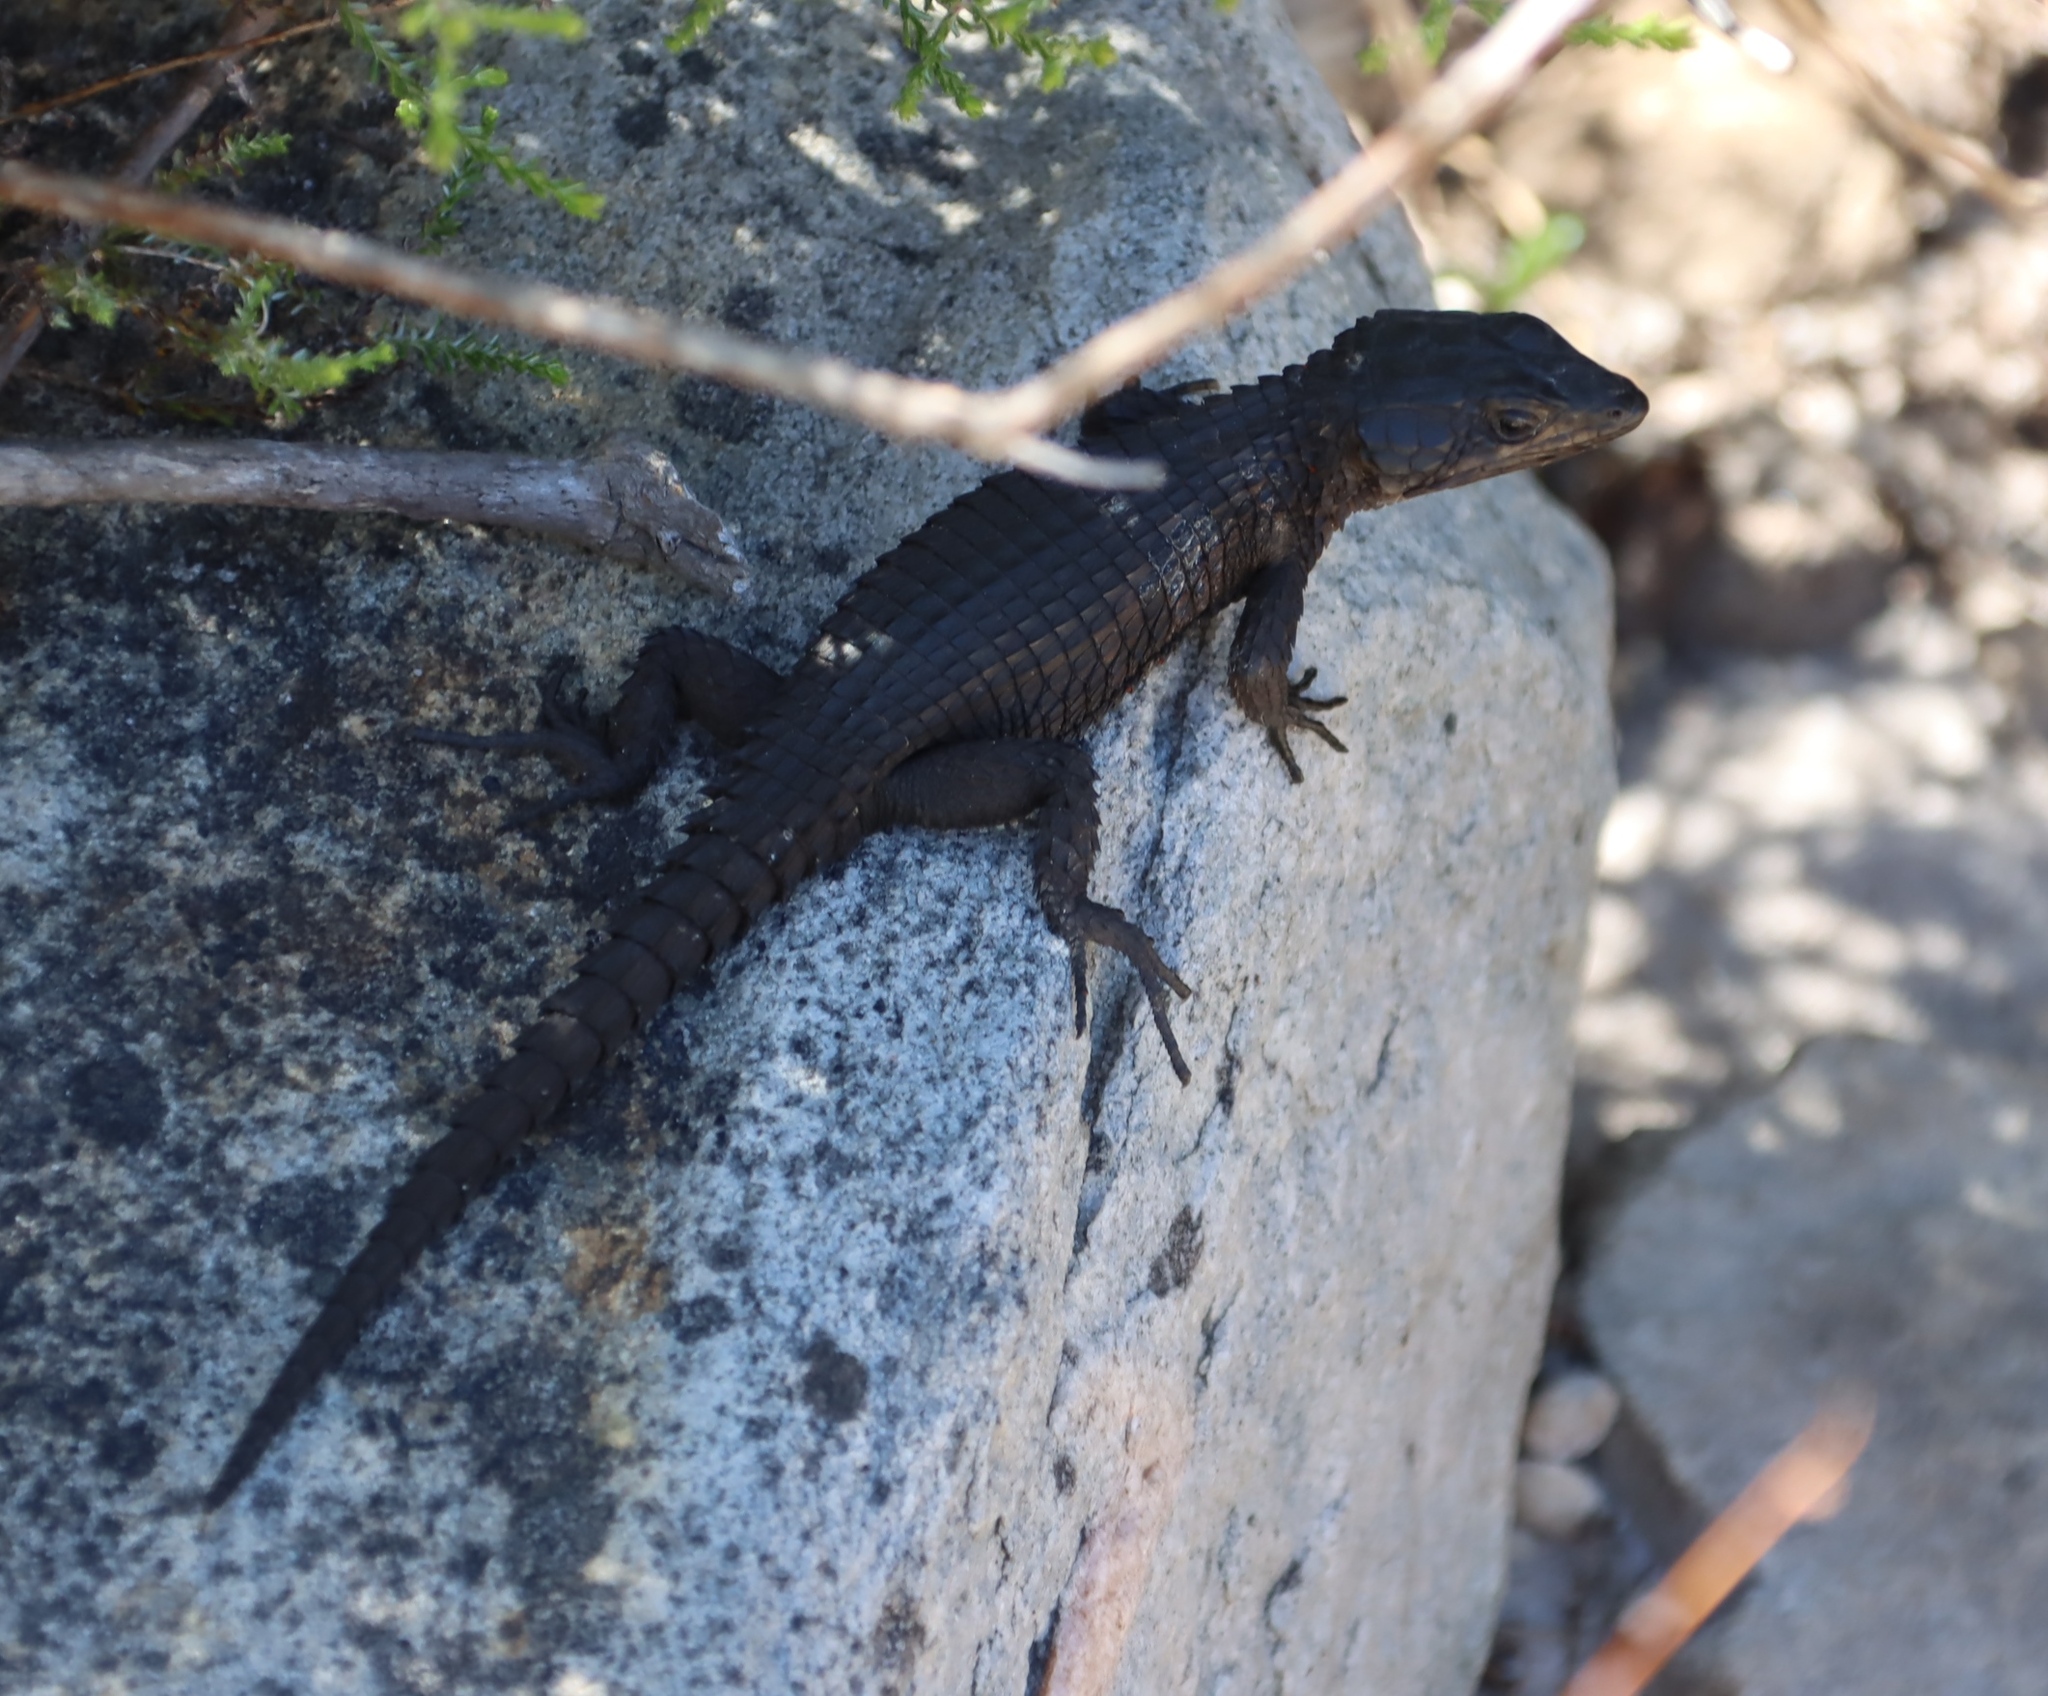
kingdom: Animalia
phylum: Chordata
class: Squamata
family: Cordylidae
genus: Cordylus
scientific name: Cordylus niger
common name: Black girdled lizard
